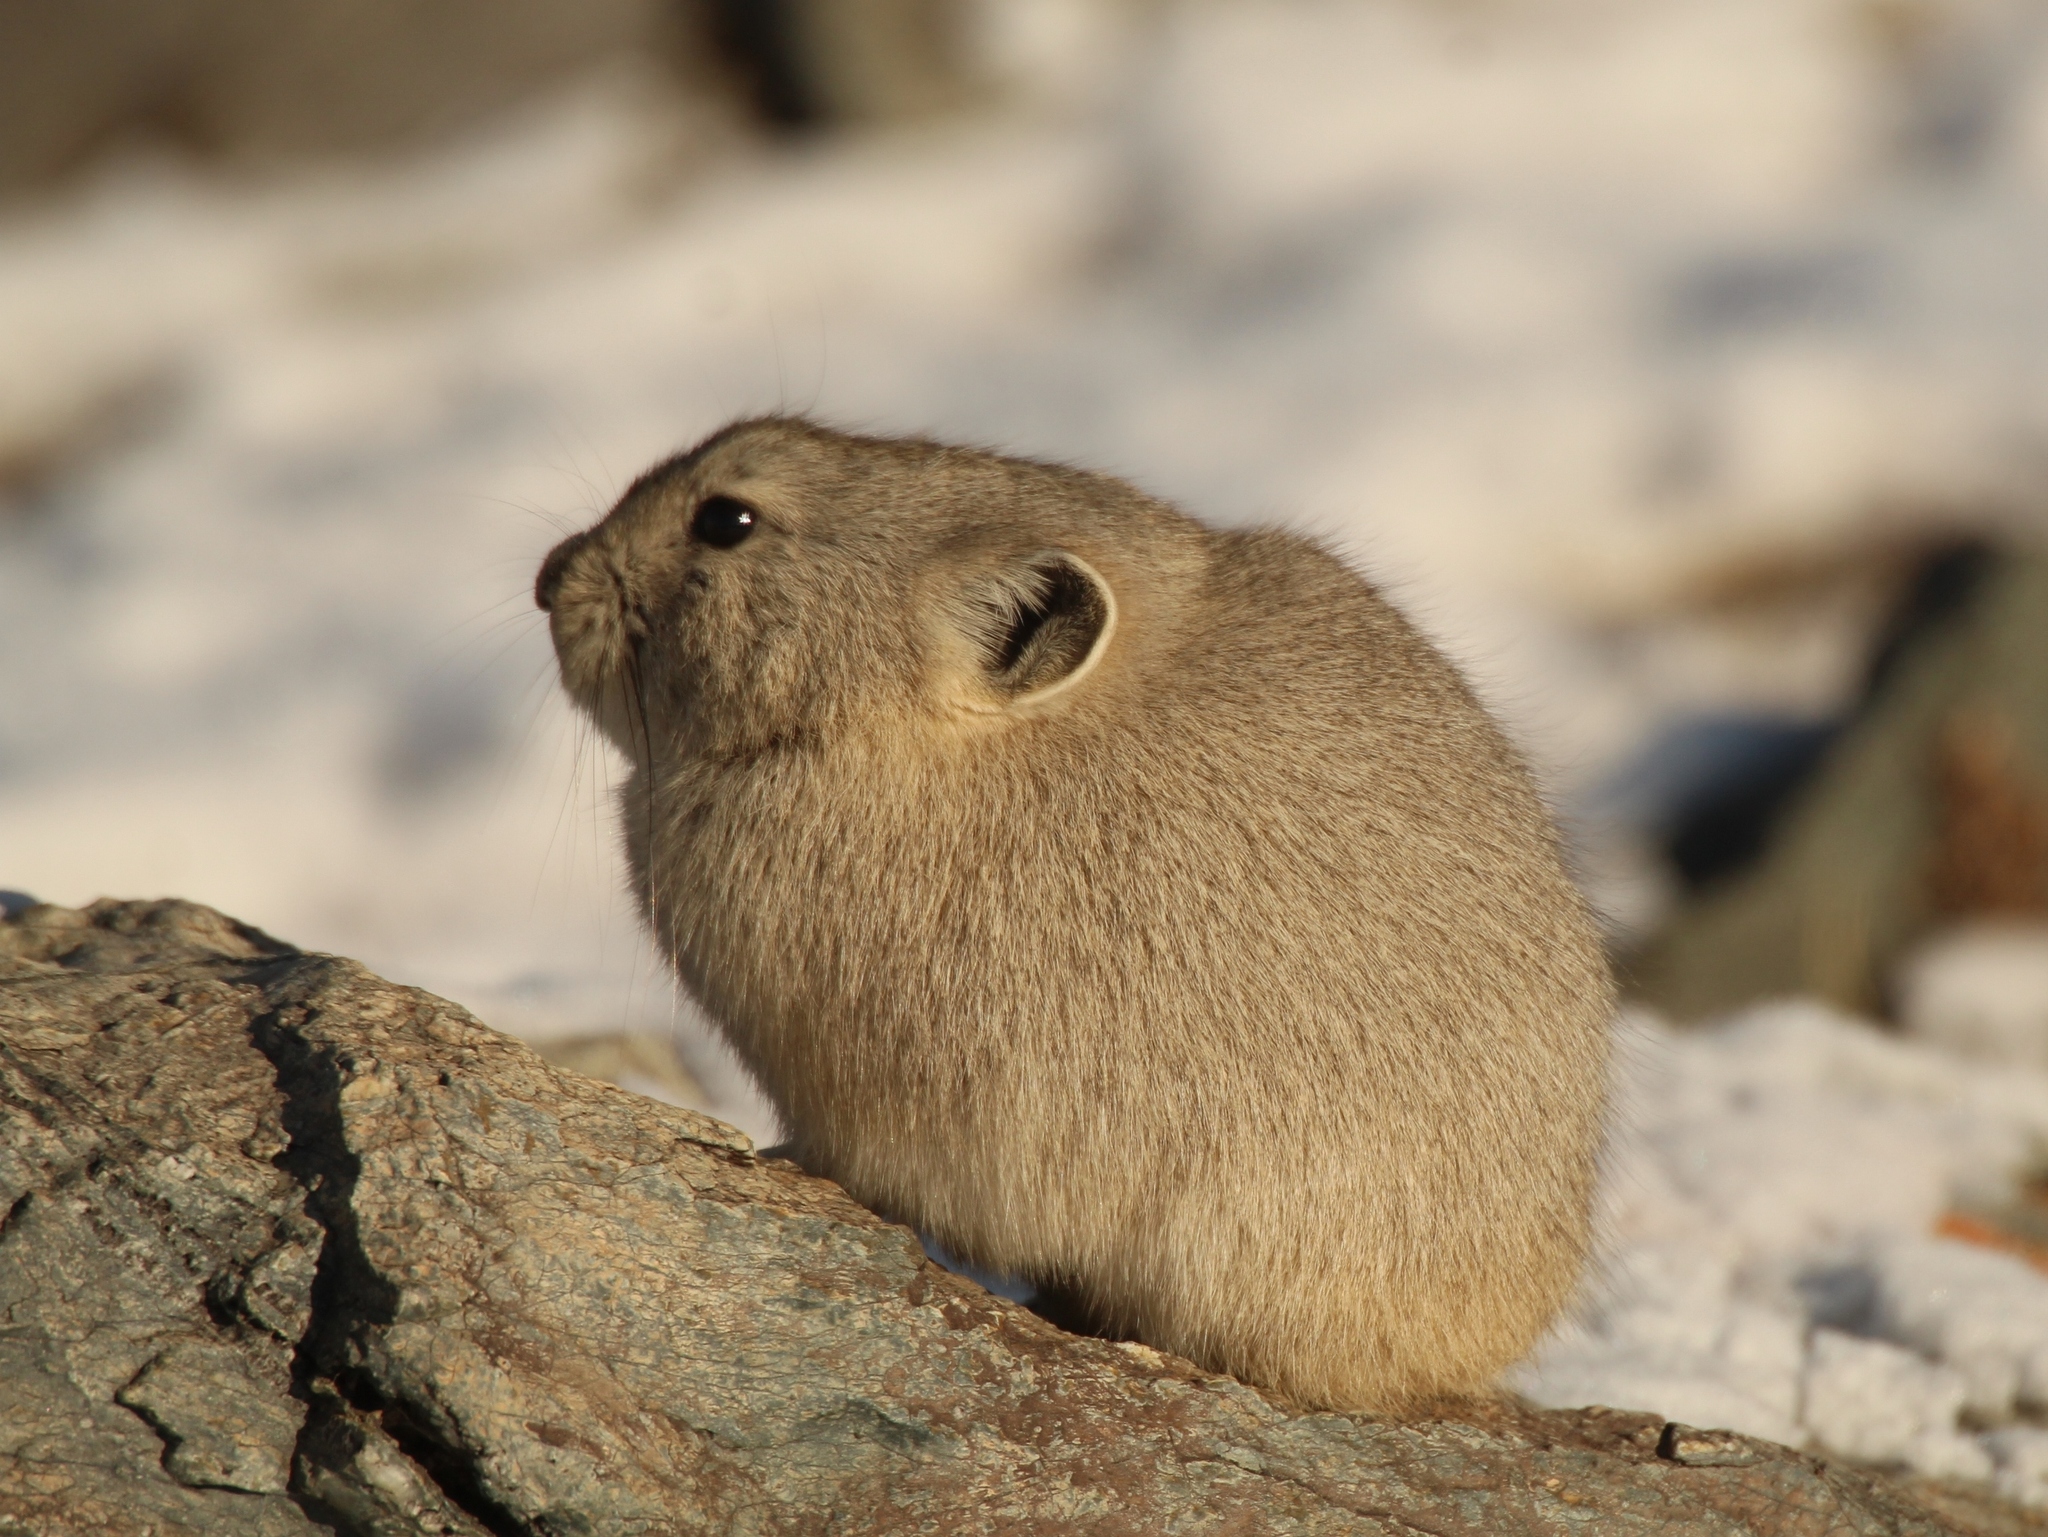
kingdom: Animalia
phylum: Chordata
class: Mammalia
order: Lagomorpha
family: Ochotonidae
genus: Ochotona
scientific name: Ochotona pallasi
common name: Mongolian pika
